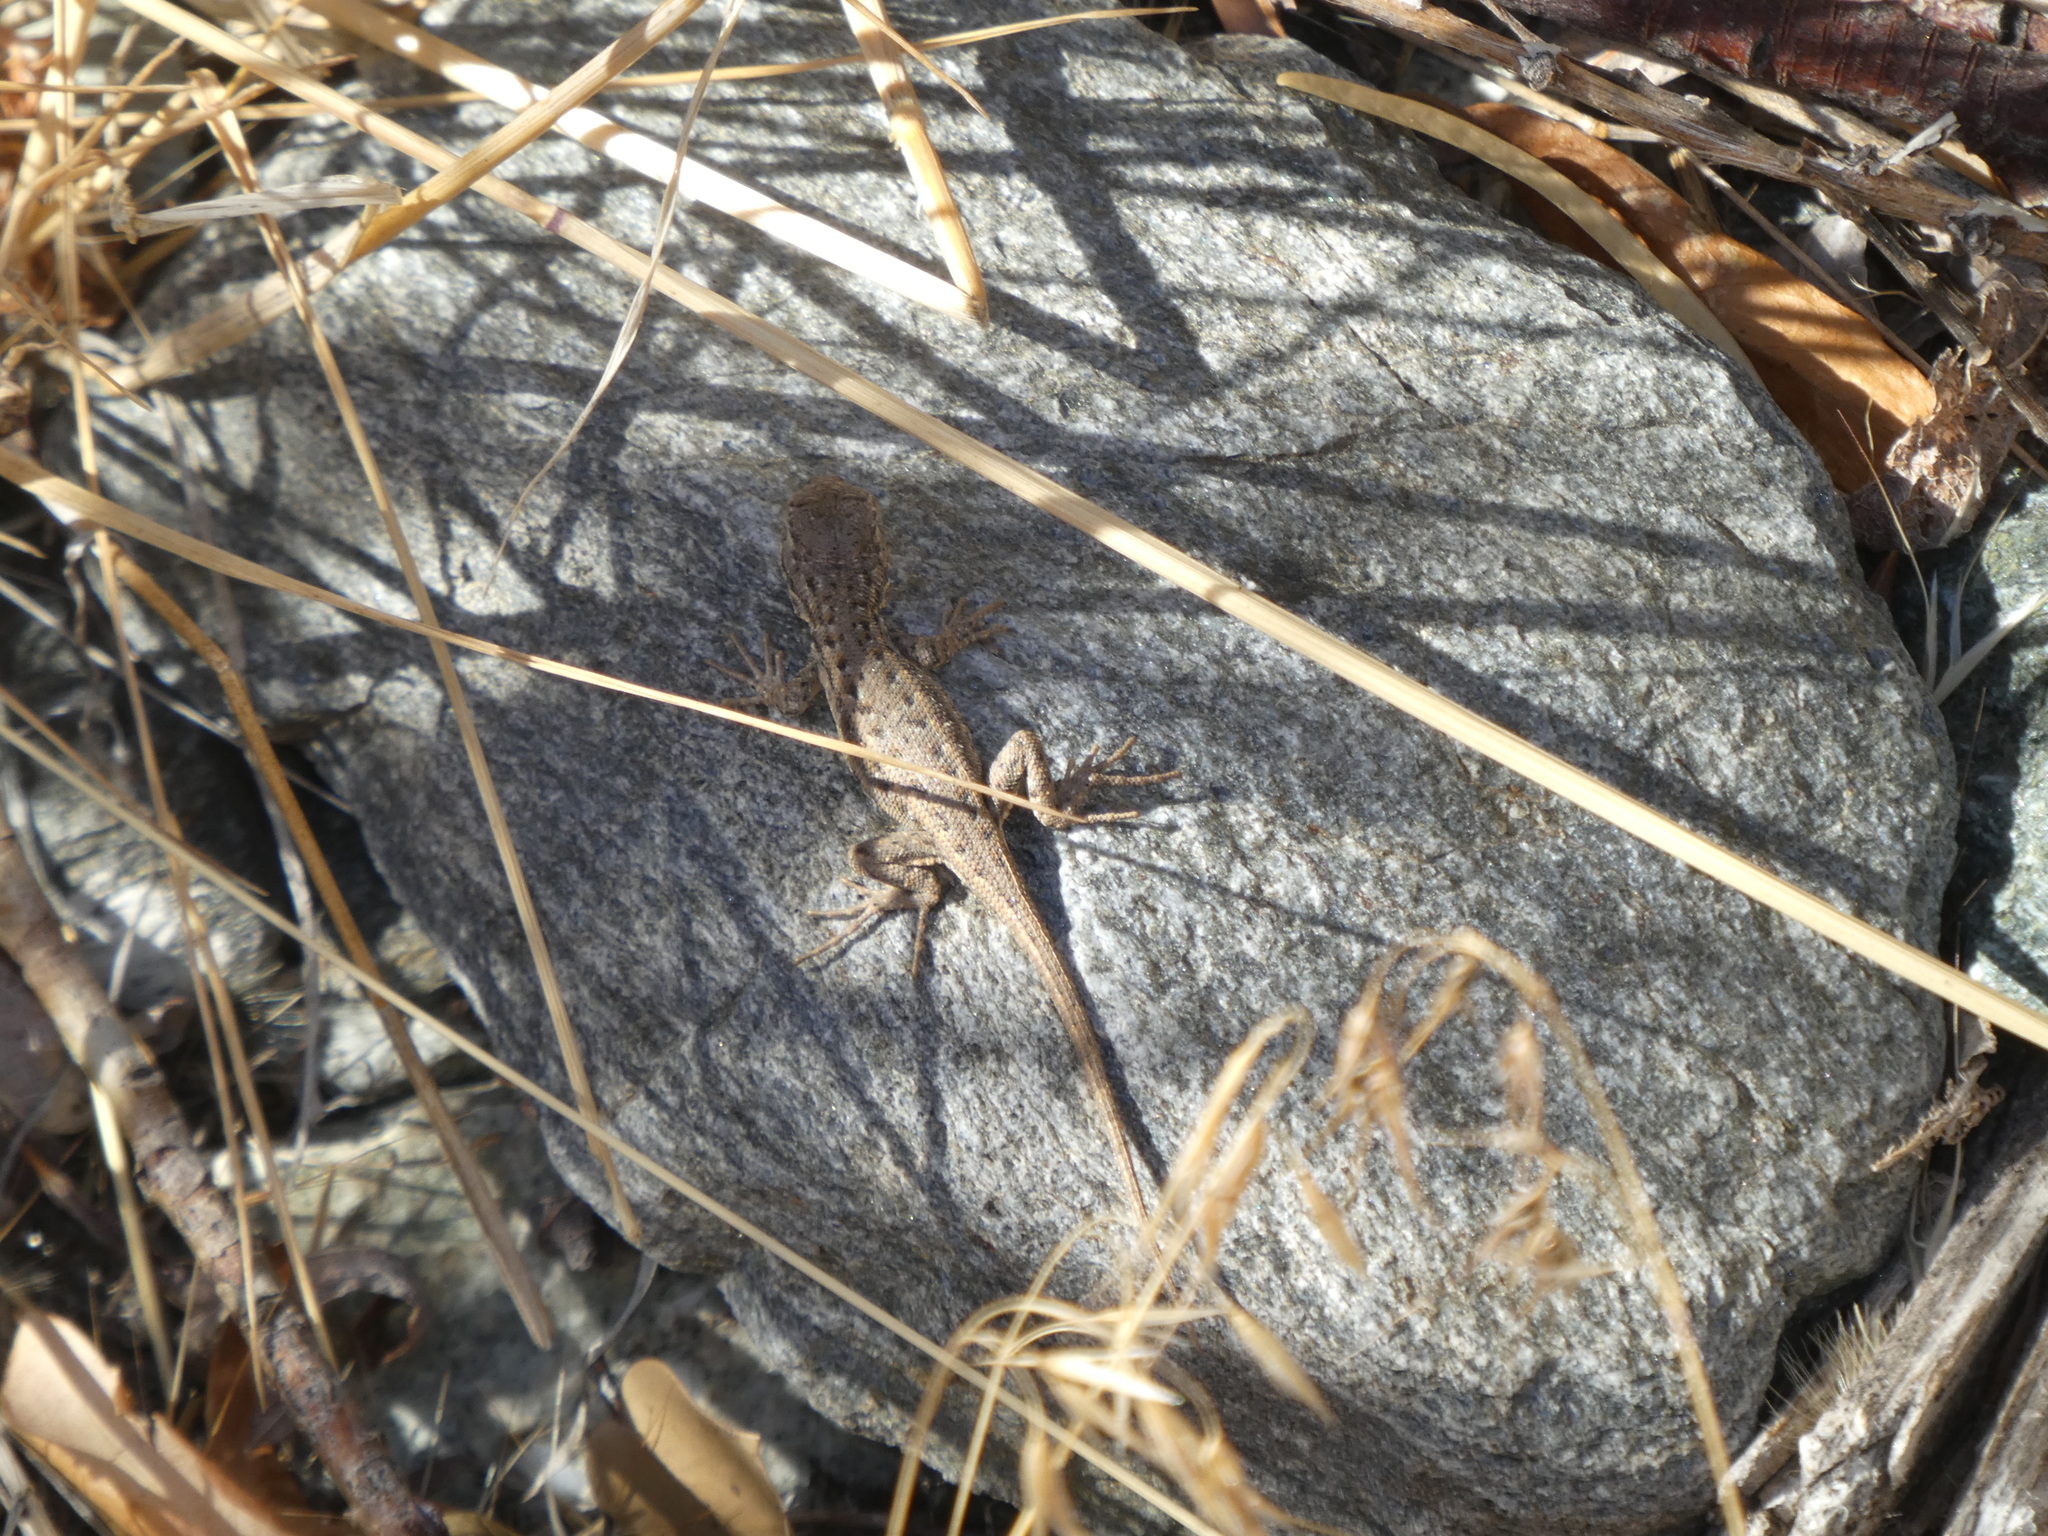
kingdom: Animalia
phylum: Chordata
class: Squamata
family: Phrynosomatidae
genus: Sceloporus
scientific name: Sceloporus graciosus
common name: Sagebrush lizard
